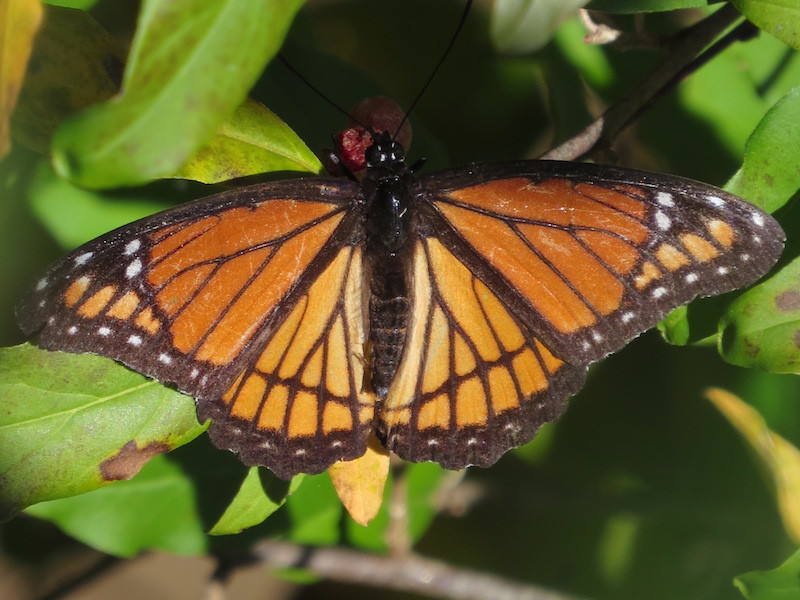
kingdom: Animalia
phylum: Arthropoda
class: Insecta
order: Lepidoptera
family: Nymphalidae
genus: Limenitis
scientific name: Limenitis archippus
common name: Viceroy
